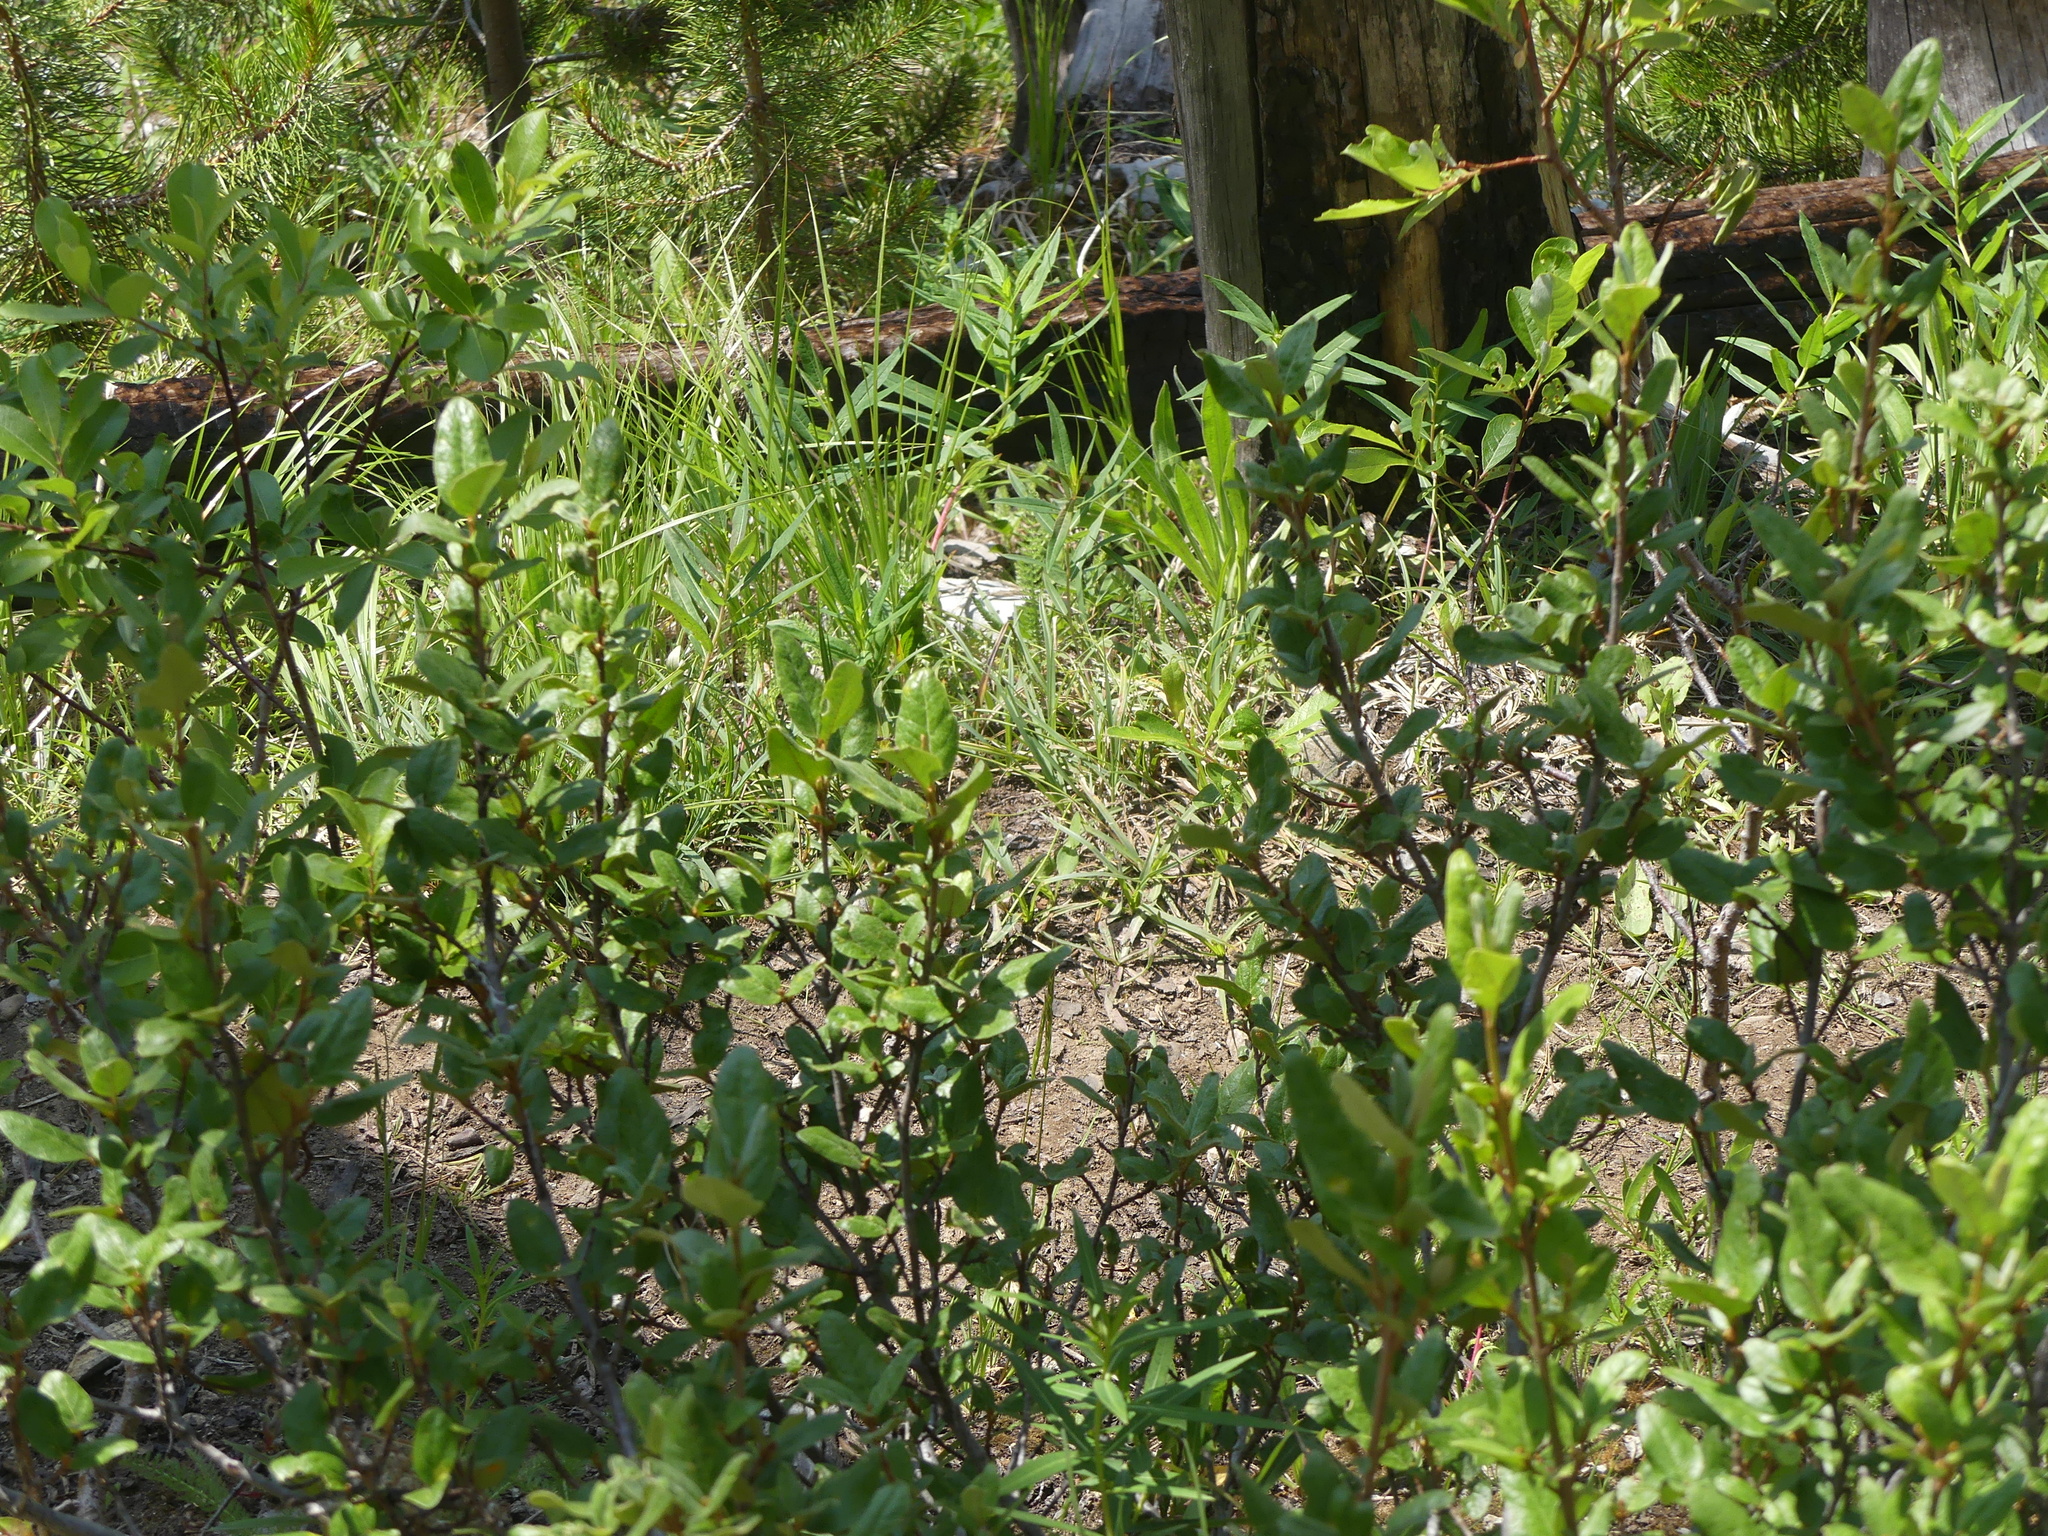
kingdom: Plantae
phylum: Tracheophyta
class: Magnoliopsida
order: Rosales
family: Elaeagnaceae
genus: Shepherdia
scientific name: Shepherdia canadensis
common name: Soapberry
